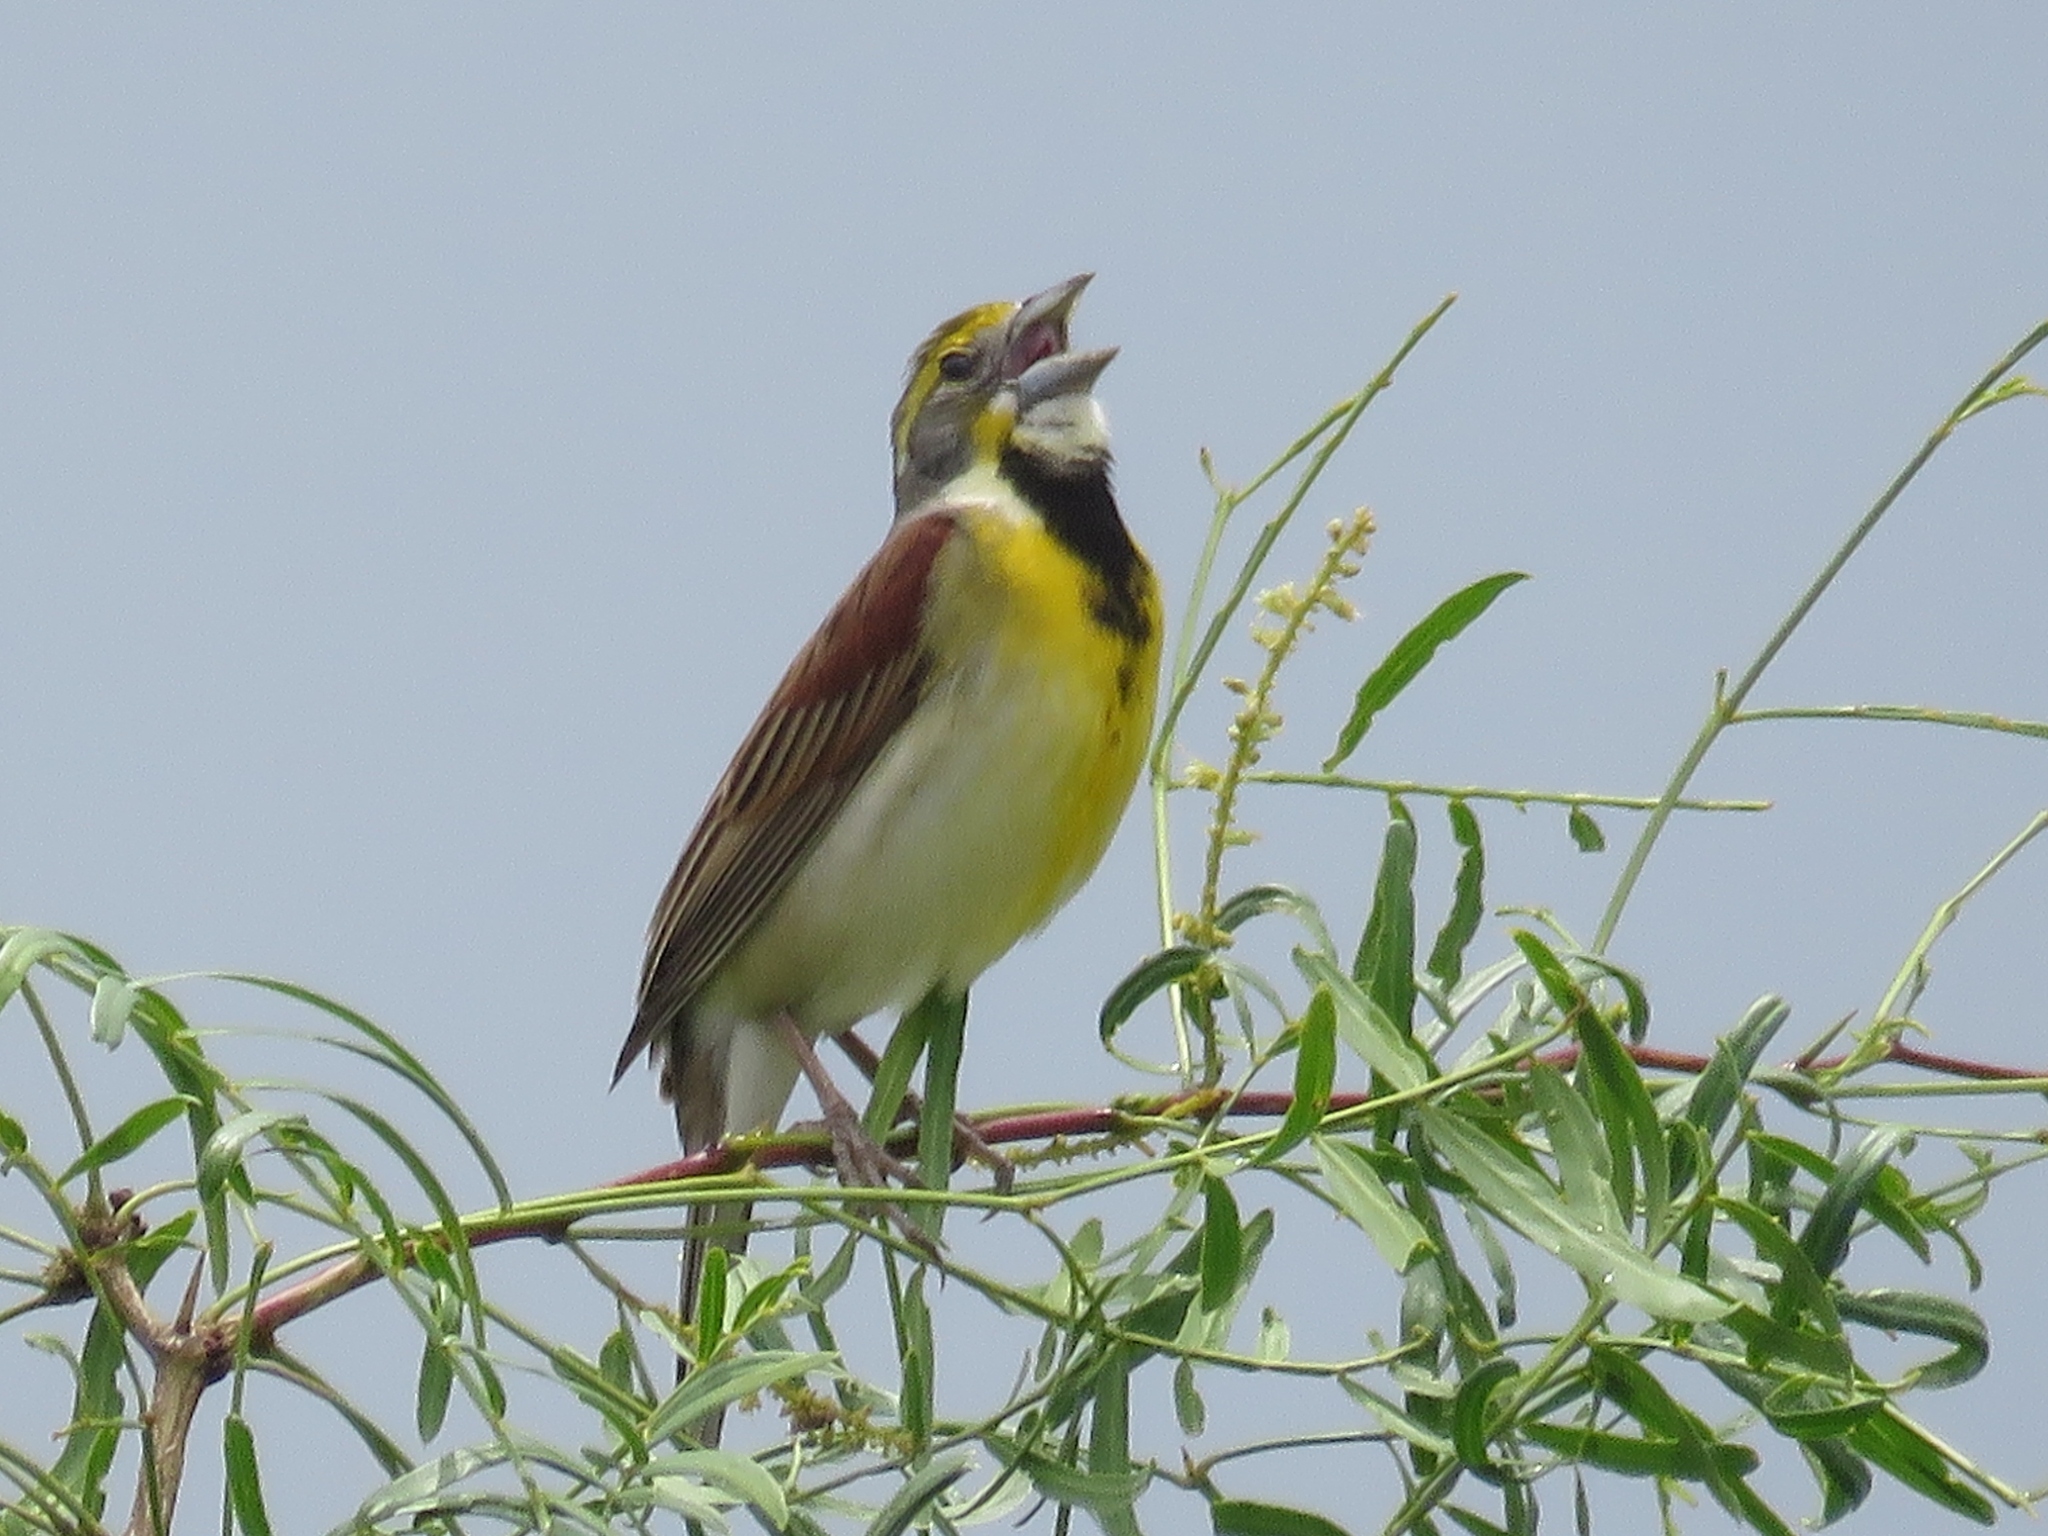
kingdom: Animalia
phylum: Chordata
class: Aves
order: Passeriformes
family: Cardinalidae
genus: Spiza
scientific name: Spiza americana
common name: Dickcissel
